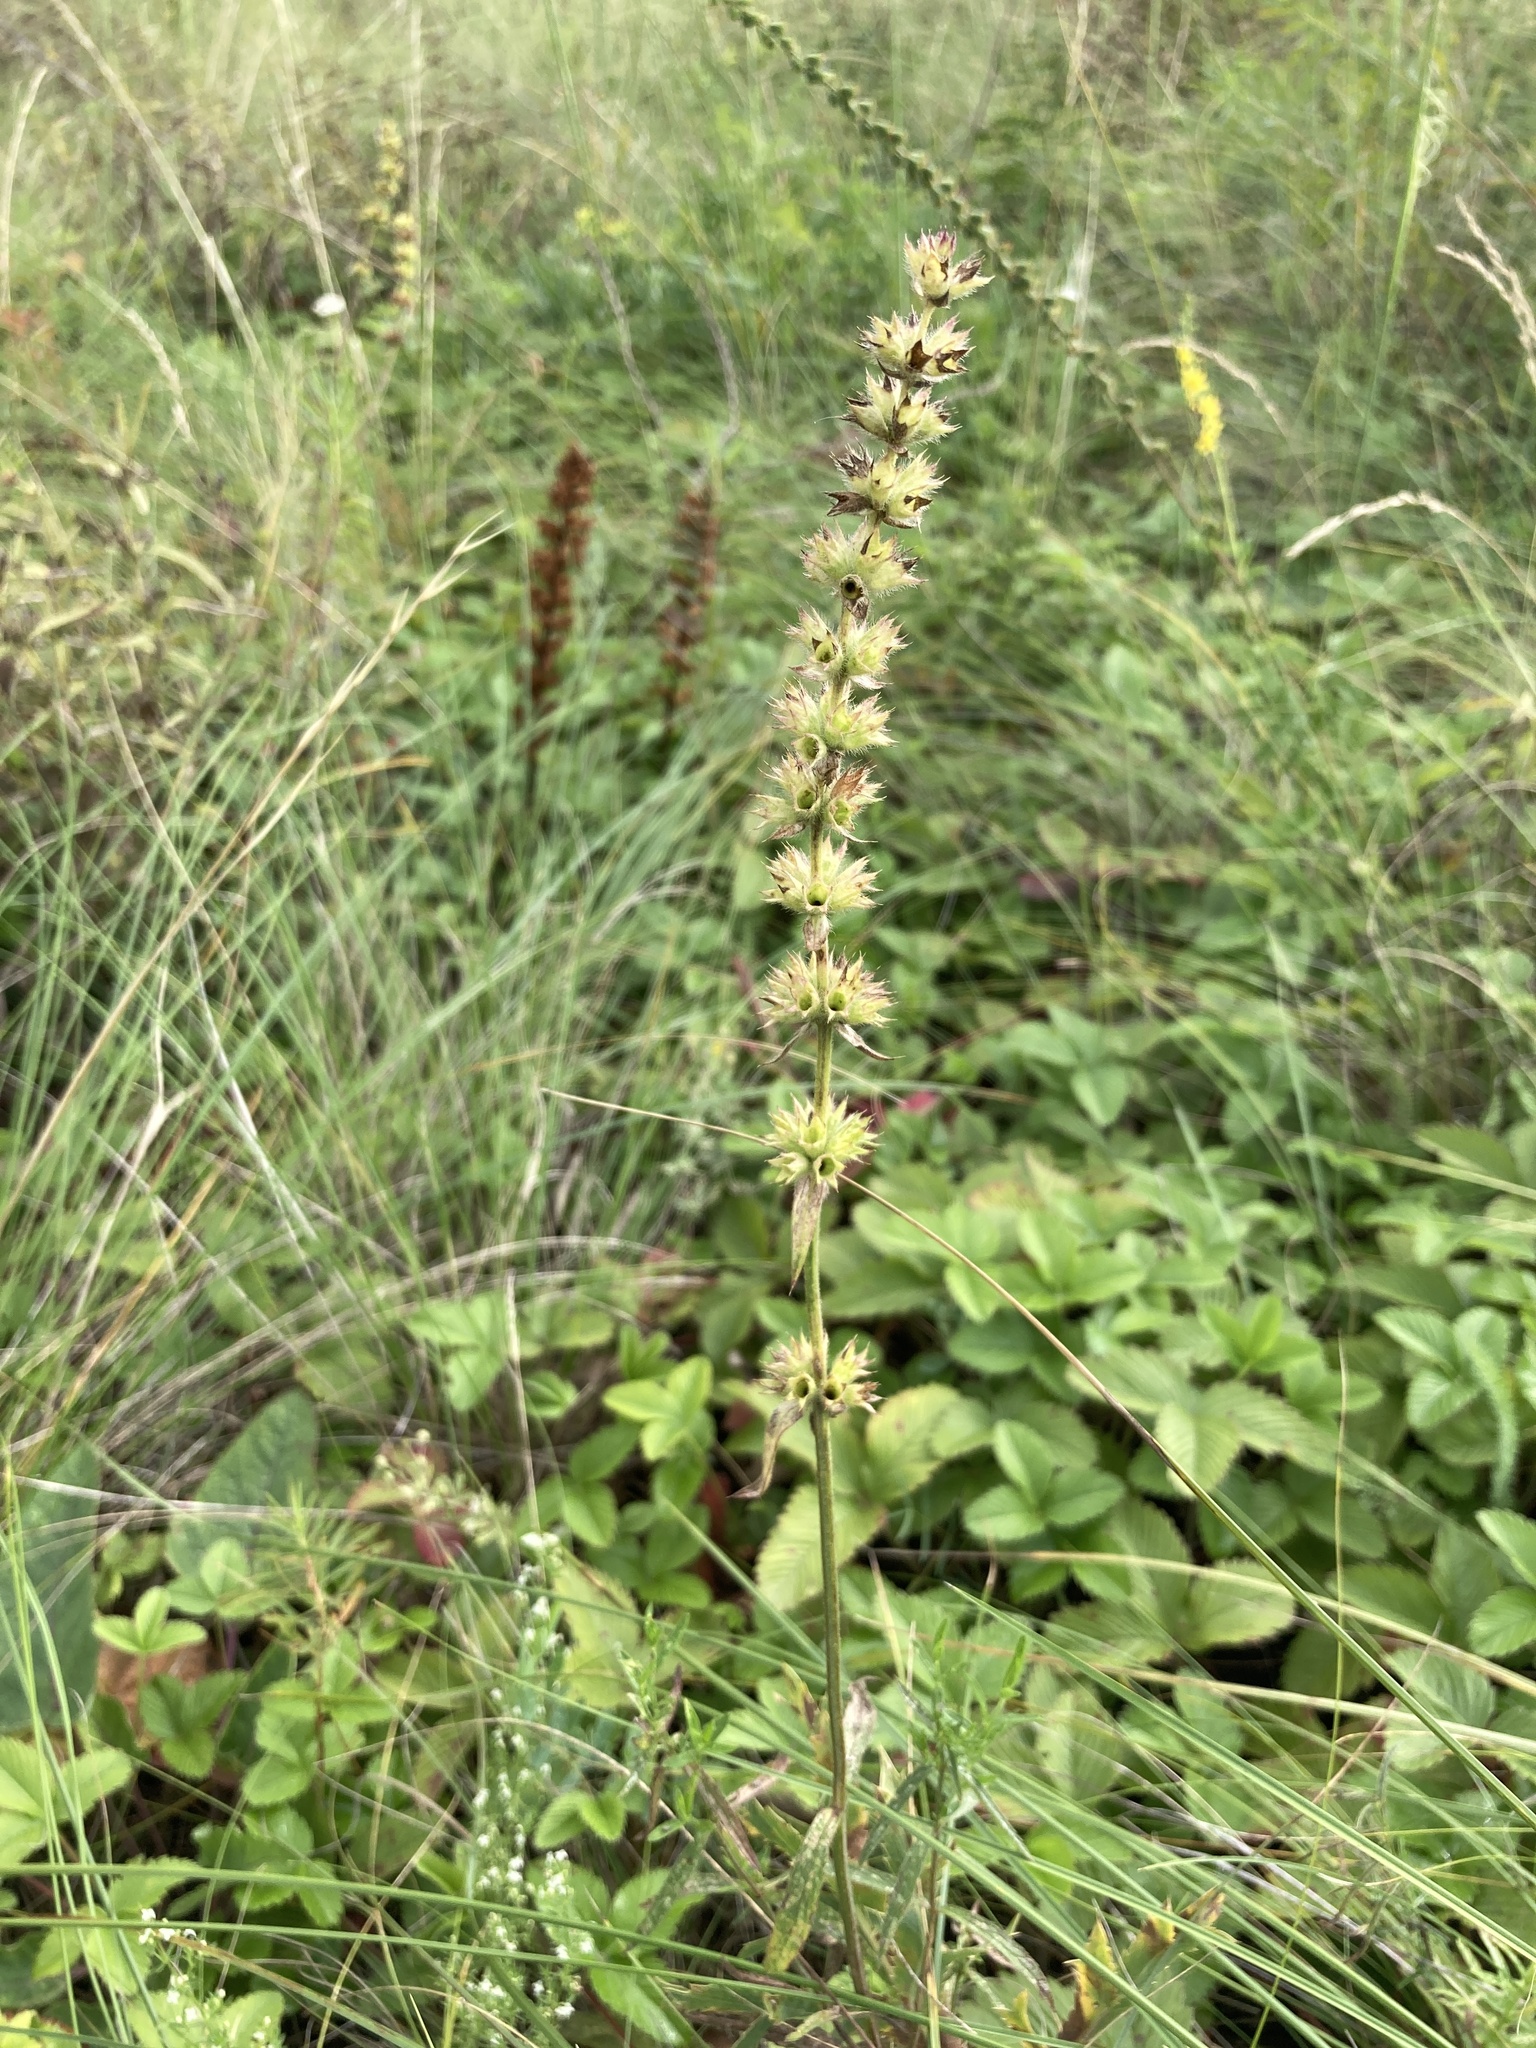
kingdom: Plantae
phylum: Tracheophyta
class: Magnoliopsida
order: Lamiales
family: Lamiaceae
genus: Stachys
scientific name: Stachys recta
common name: Perennial yellow-woundwort
